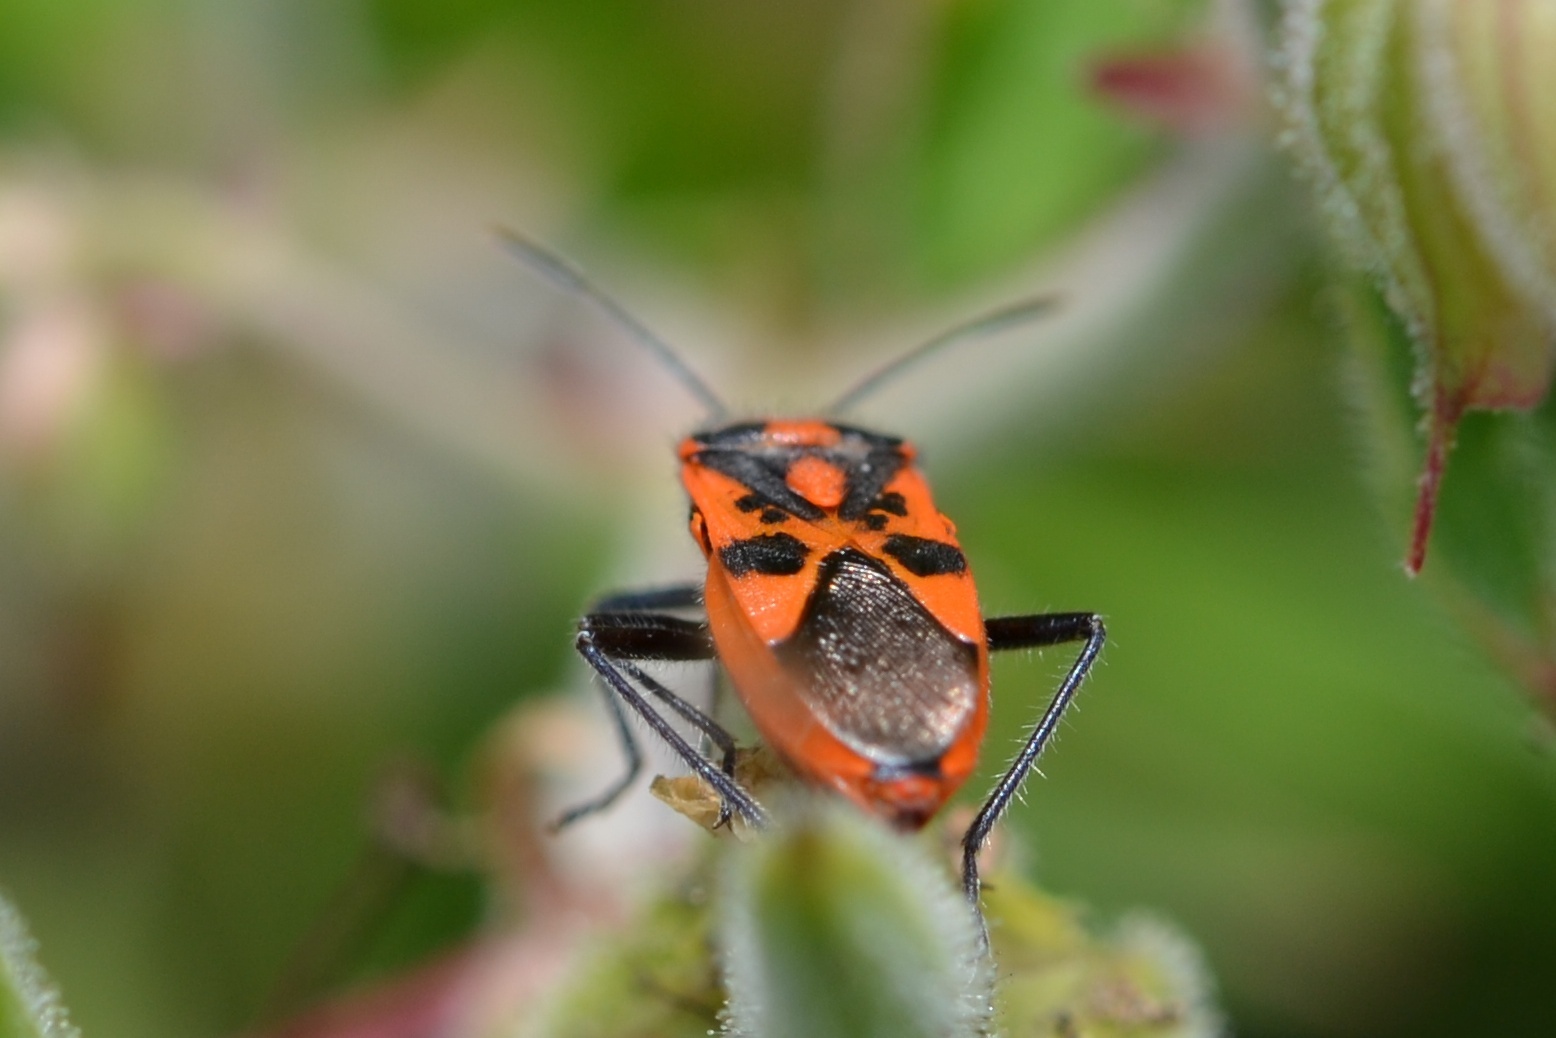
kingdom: Animalia
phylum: Arthropoda
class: Insecta
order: Hemiptera
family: Rhopalidae
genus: Corizus
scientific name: Corizus hyoscyami
